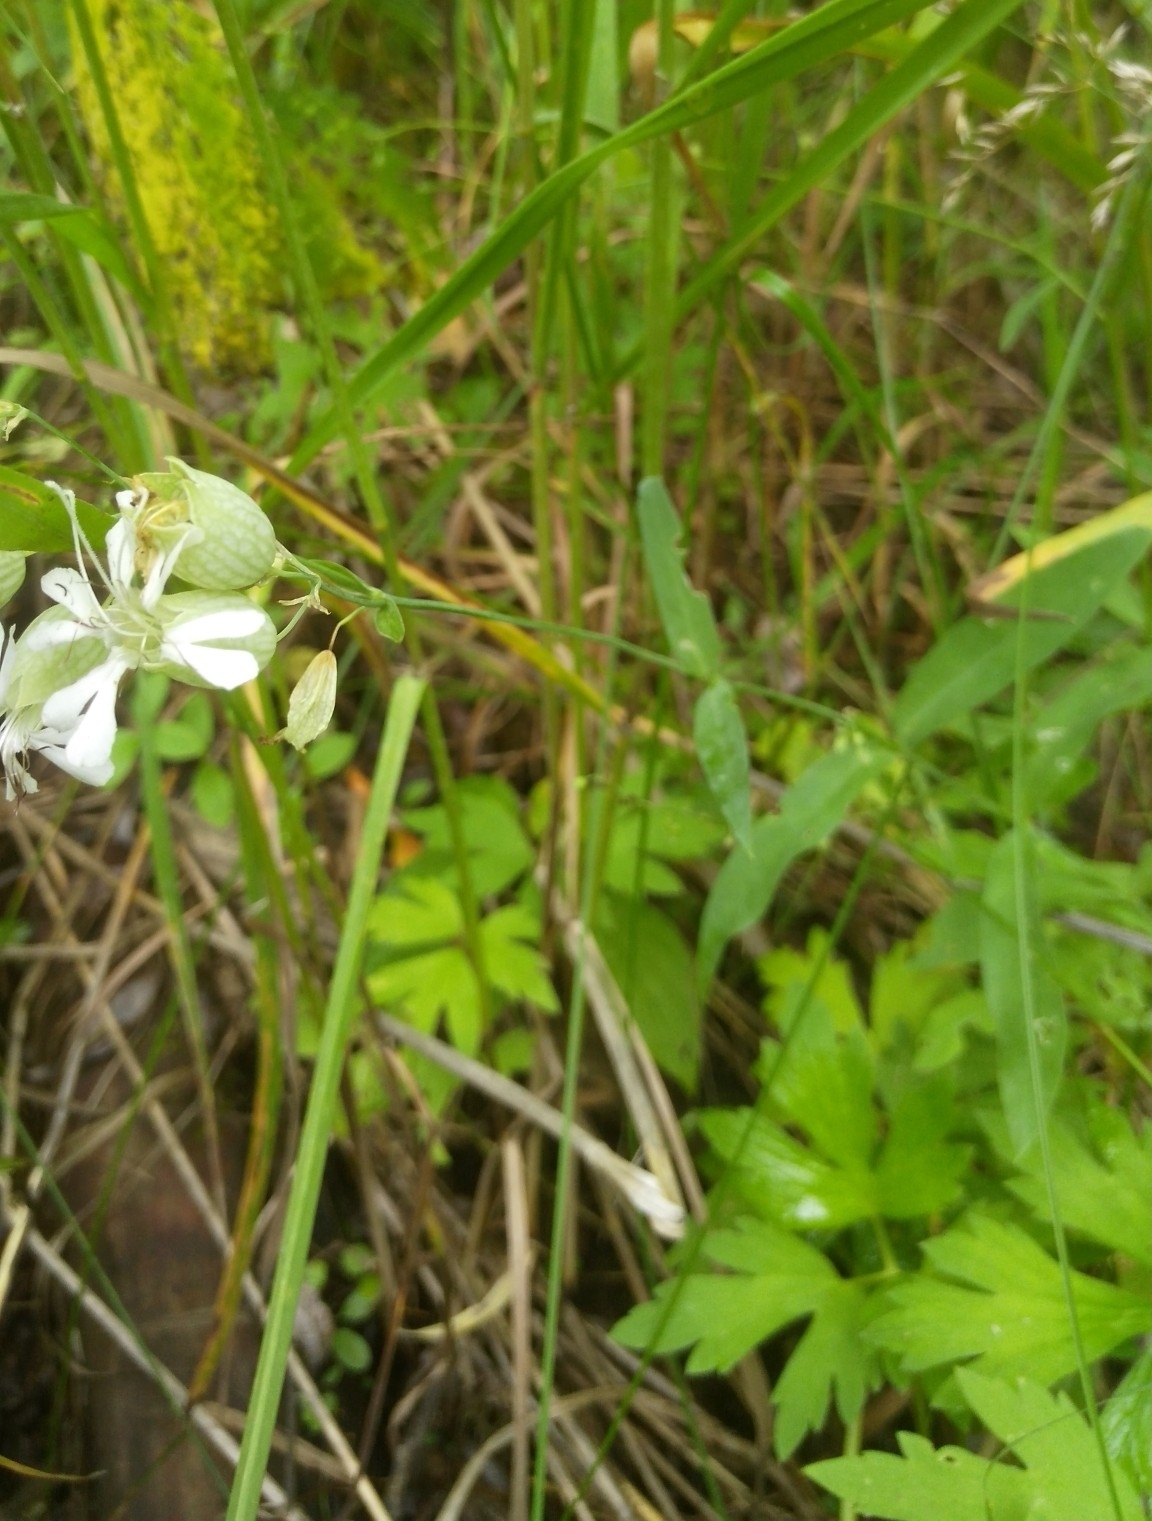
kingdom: Plantae
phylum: Tracheophyta
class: Magnoliopsida
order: Caryophyllales
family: Caryophyllaceae
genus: Silene
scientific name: Silene vulgaris
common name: Bladder campion
